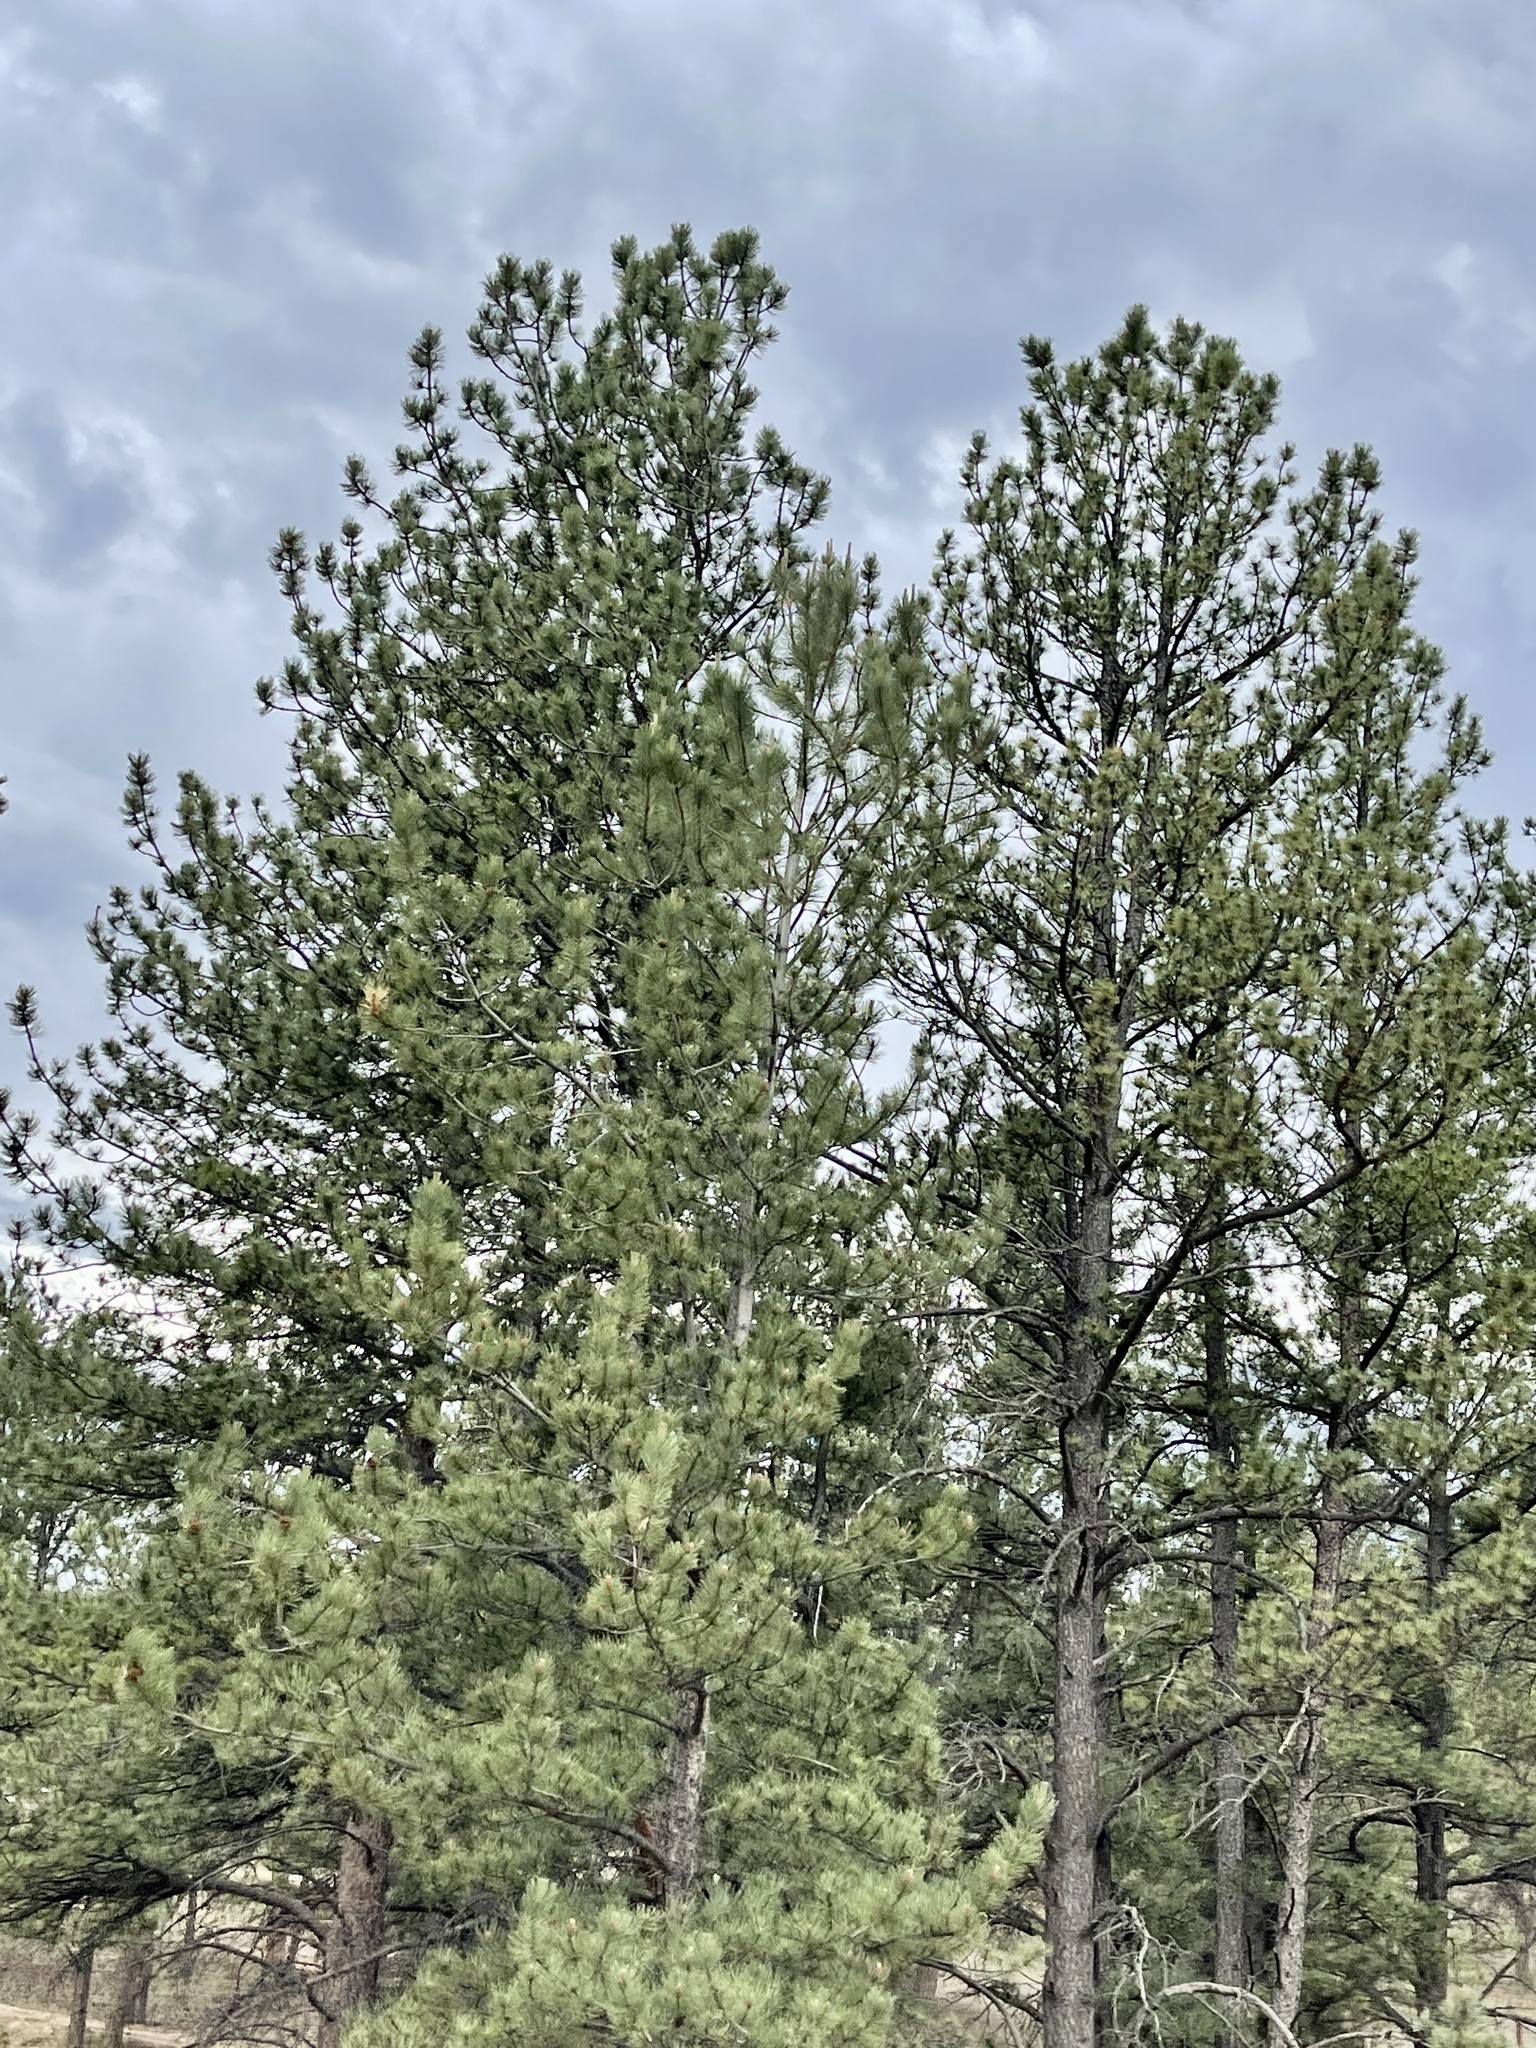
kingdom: Plantae
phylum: Tracheophyta
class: Pinopsida
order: Pinales
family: Pinaceae
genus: Pinus
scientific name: Pinus ponderosa
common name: Western yellow-pine
